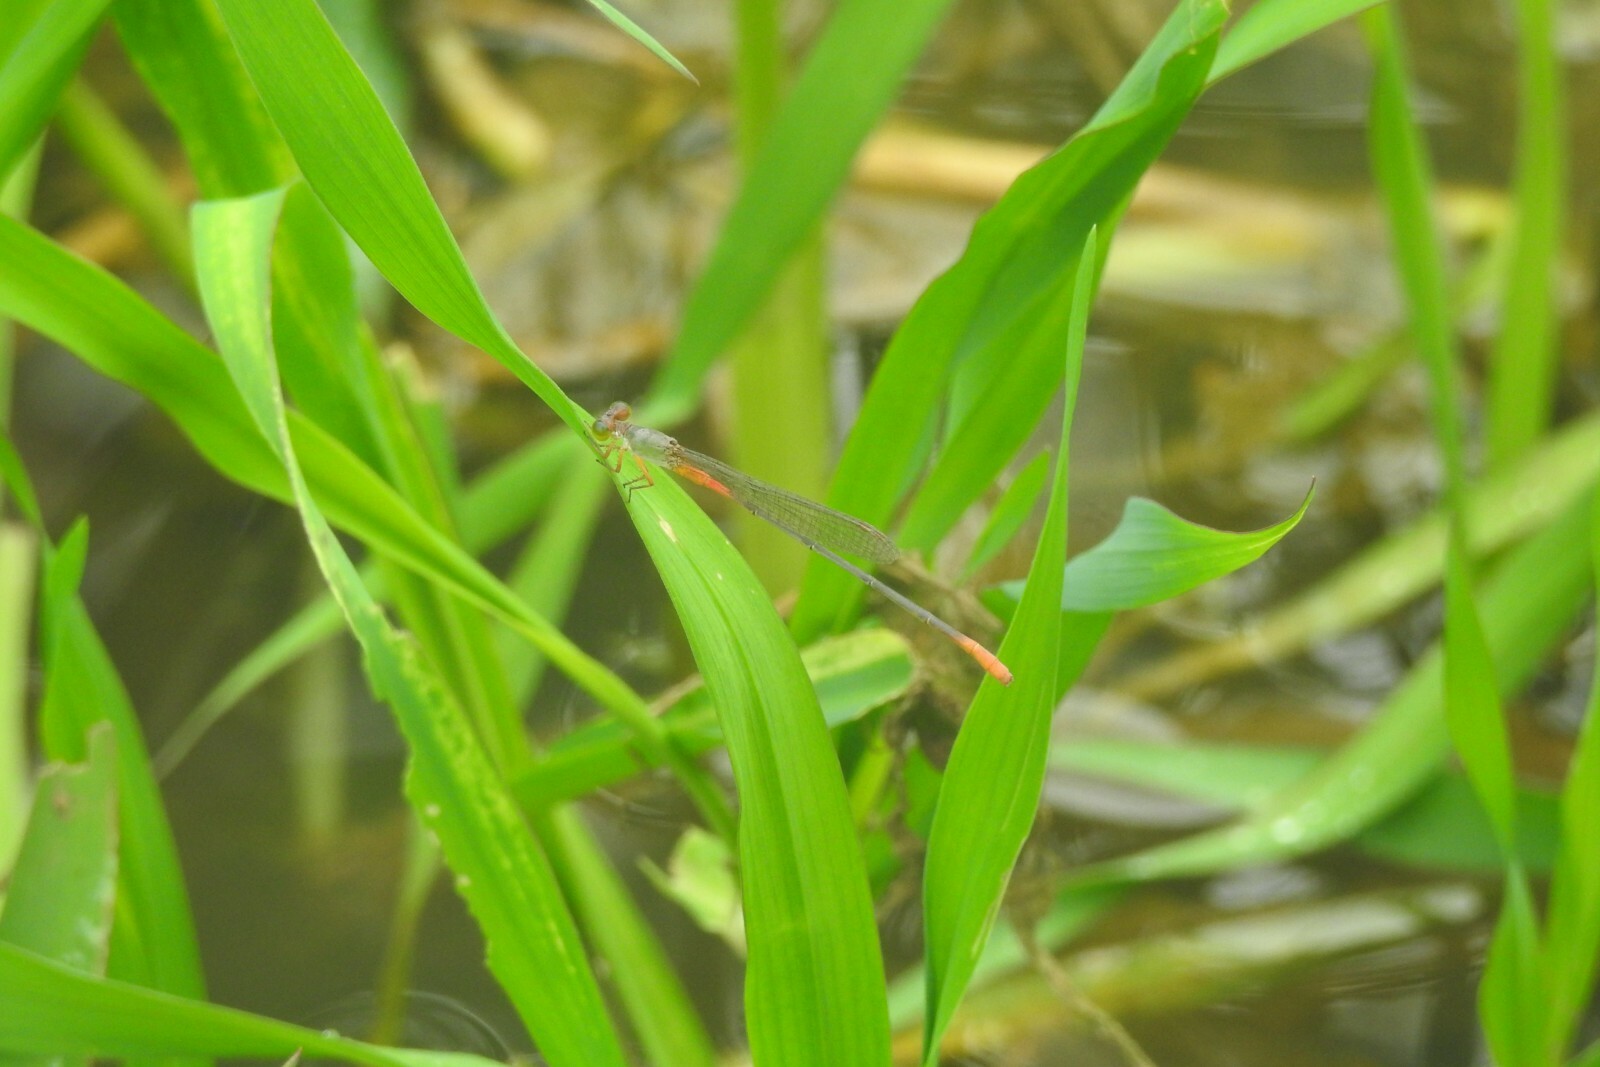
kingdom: Animalia
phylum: Arthropoda
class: Insecta
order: Odonata
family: Coenagrionidae
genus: Ceriagrion
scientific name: Ceriagrion cerinorubellum
